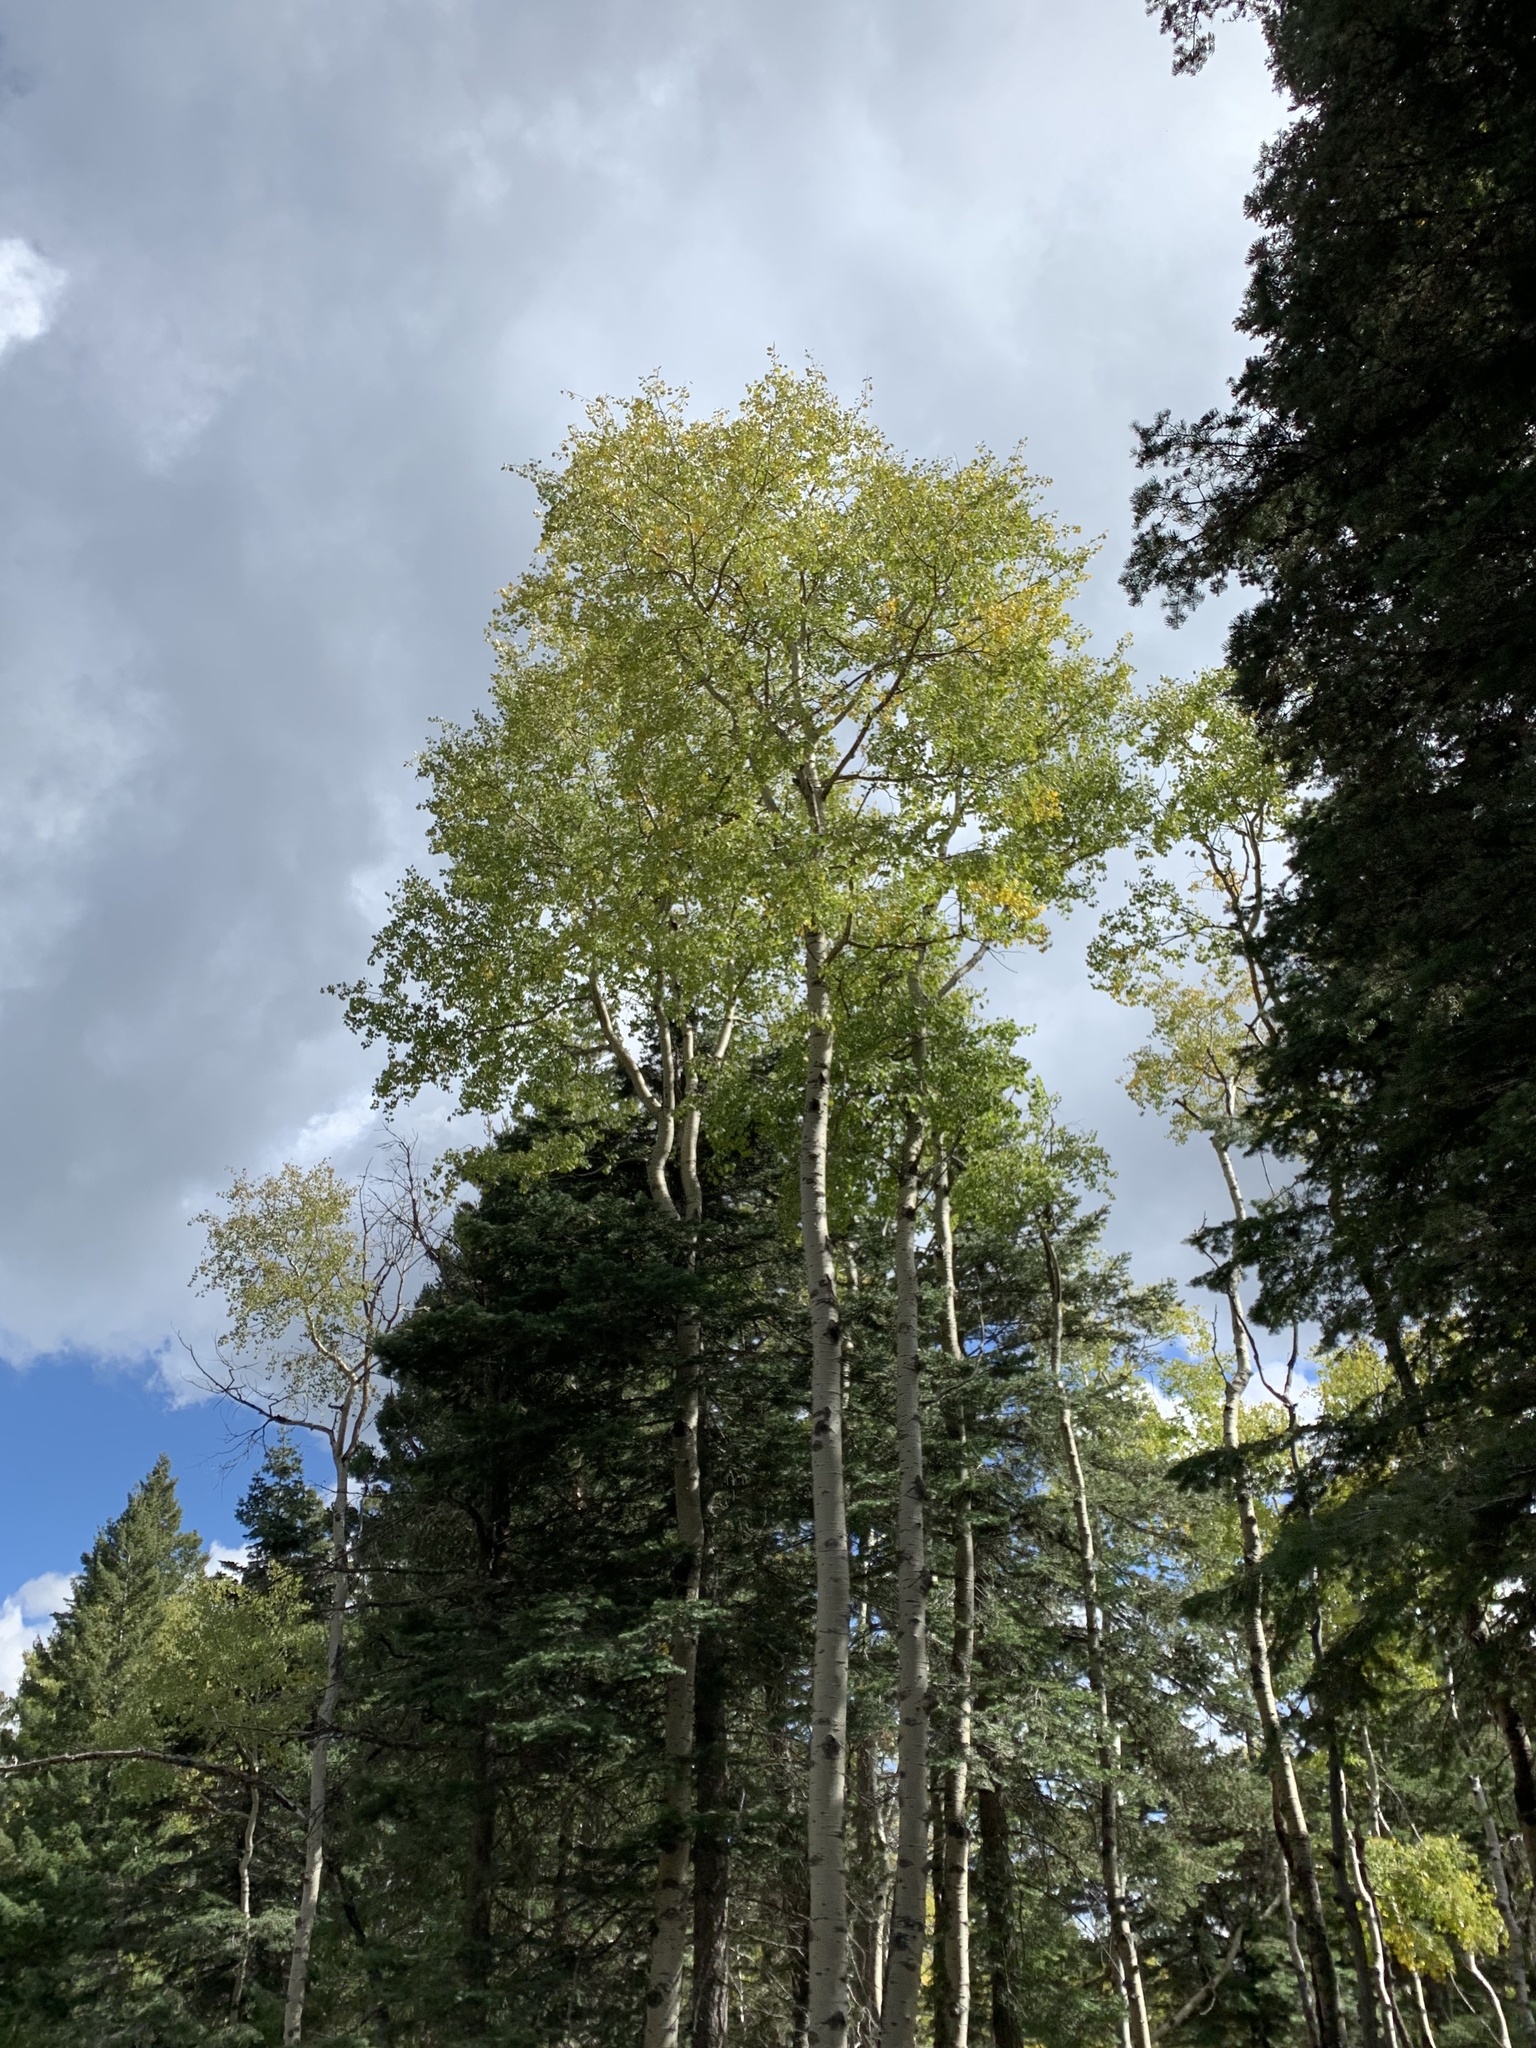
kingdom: Plantae
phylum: Tracheophyta
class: Magnoliopsida
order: Malpighiales
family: Salicaceae
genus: Populus
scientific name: Populus tremuloides
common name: Quaking aspen
